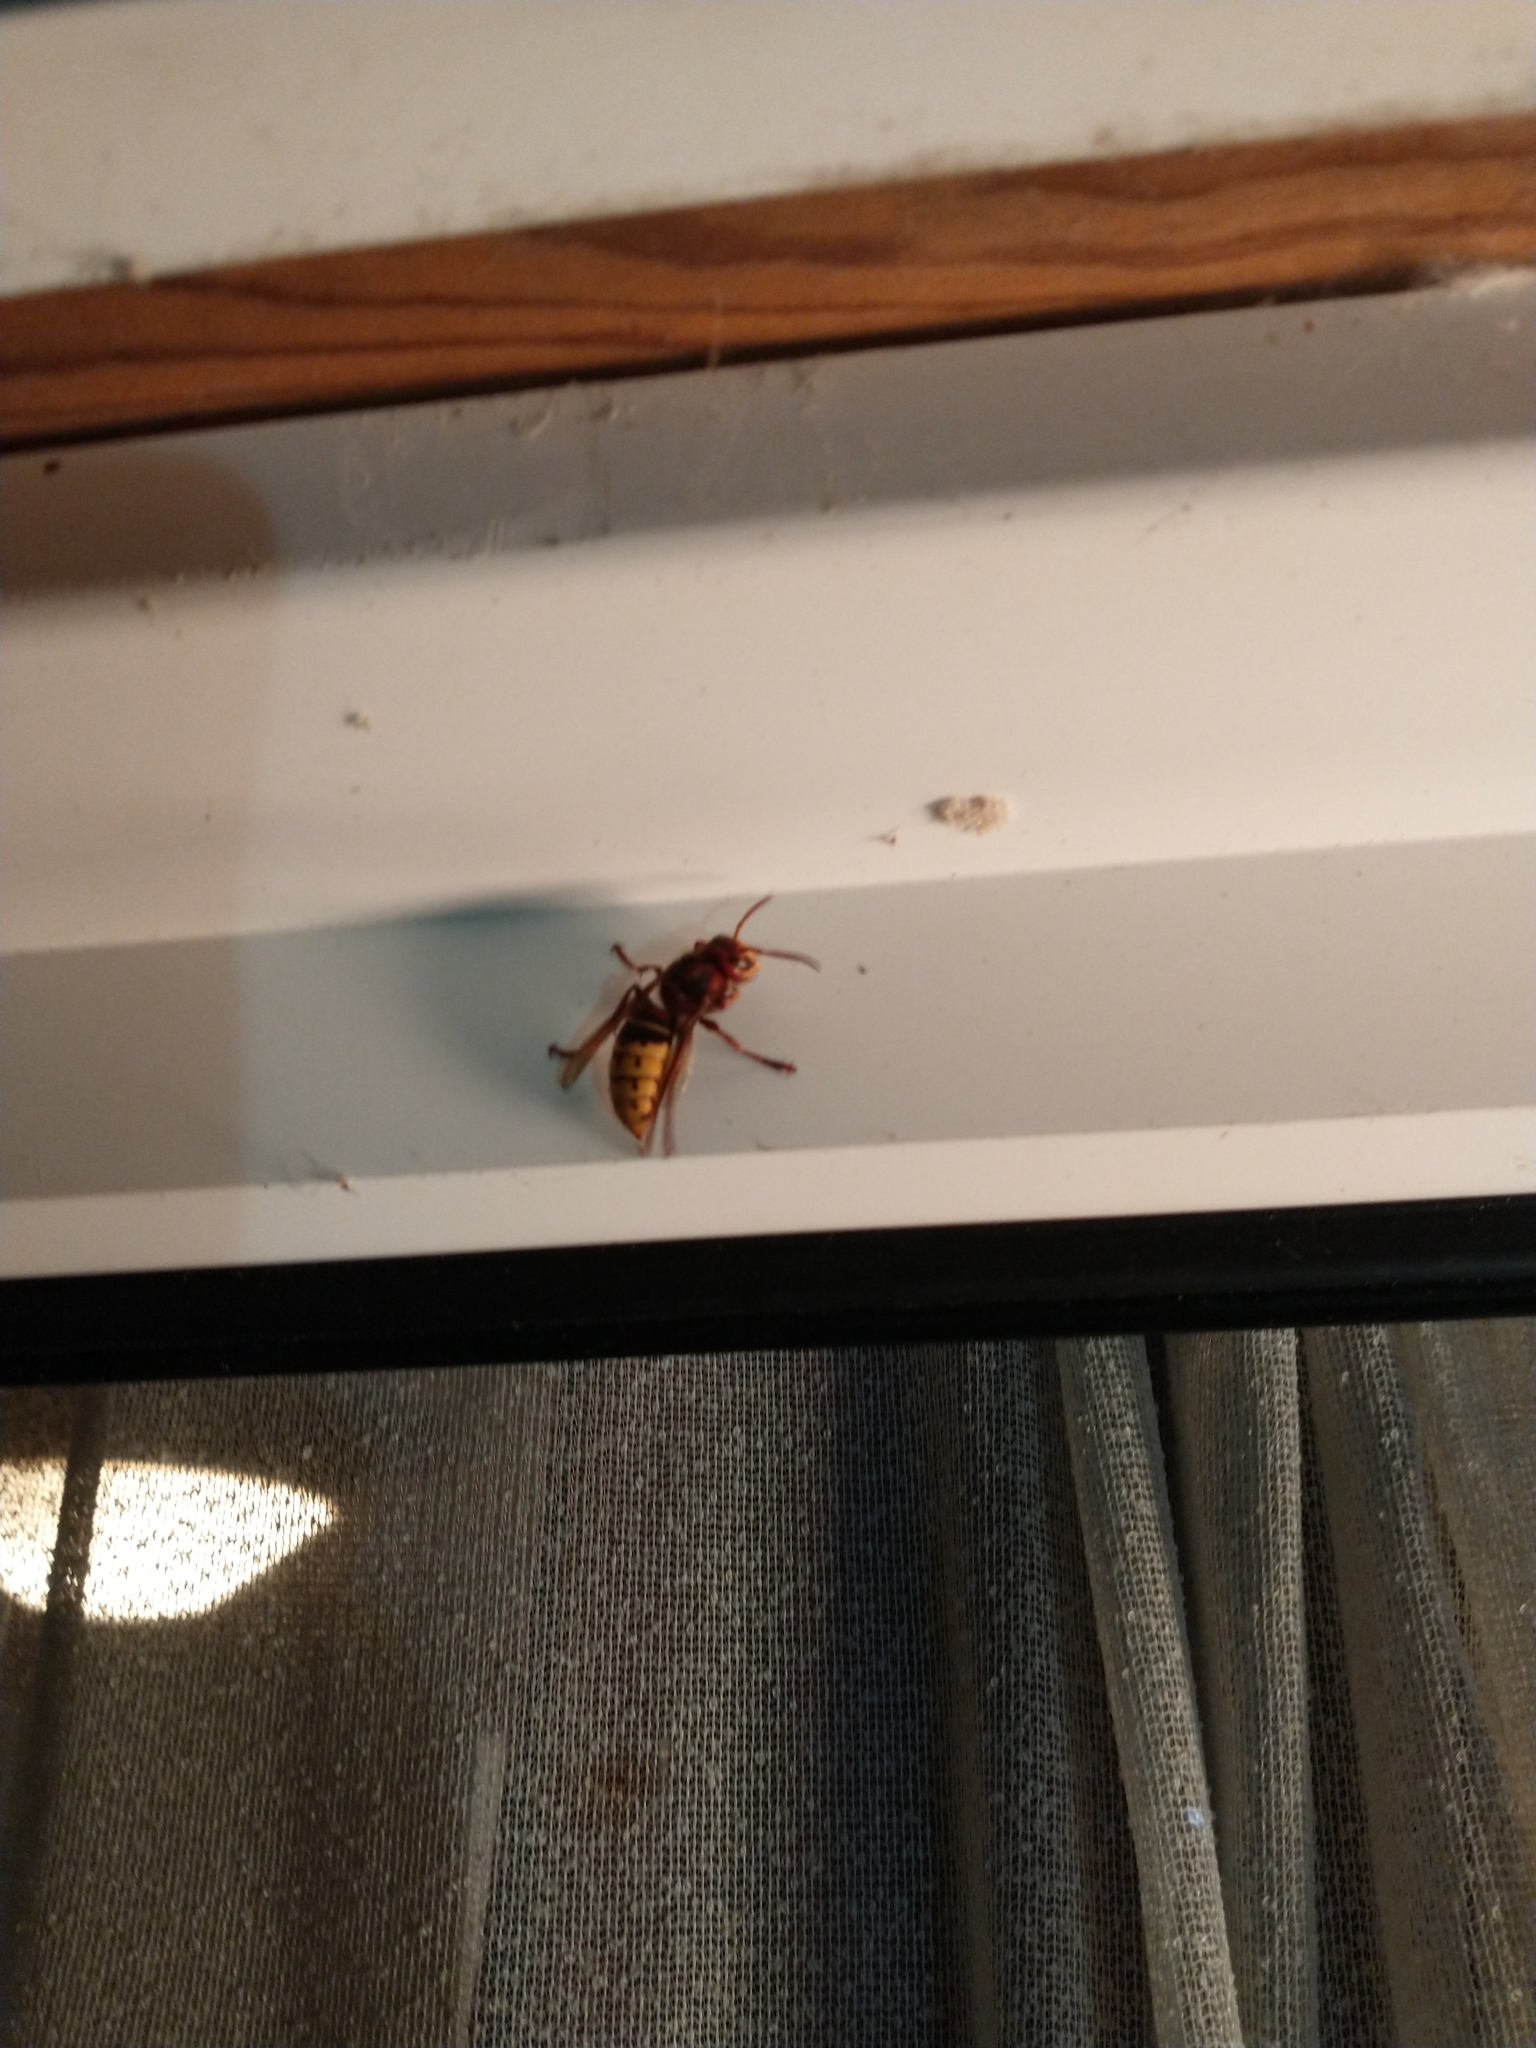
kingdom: Animalia
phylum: Arthropoda
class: Insecta
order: Hymenoptera
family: Vespidae
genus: Vespa
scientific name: Vespa crabro
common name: Hornet
